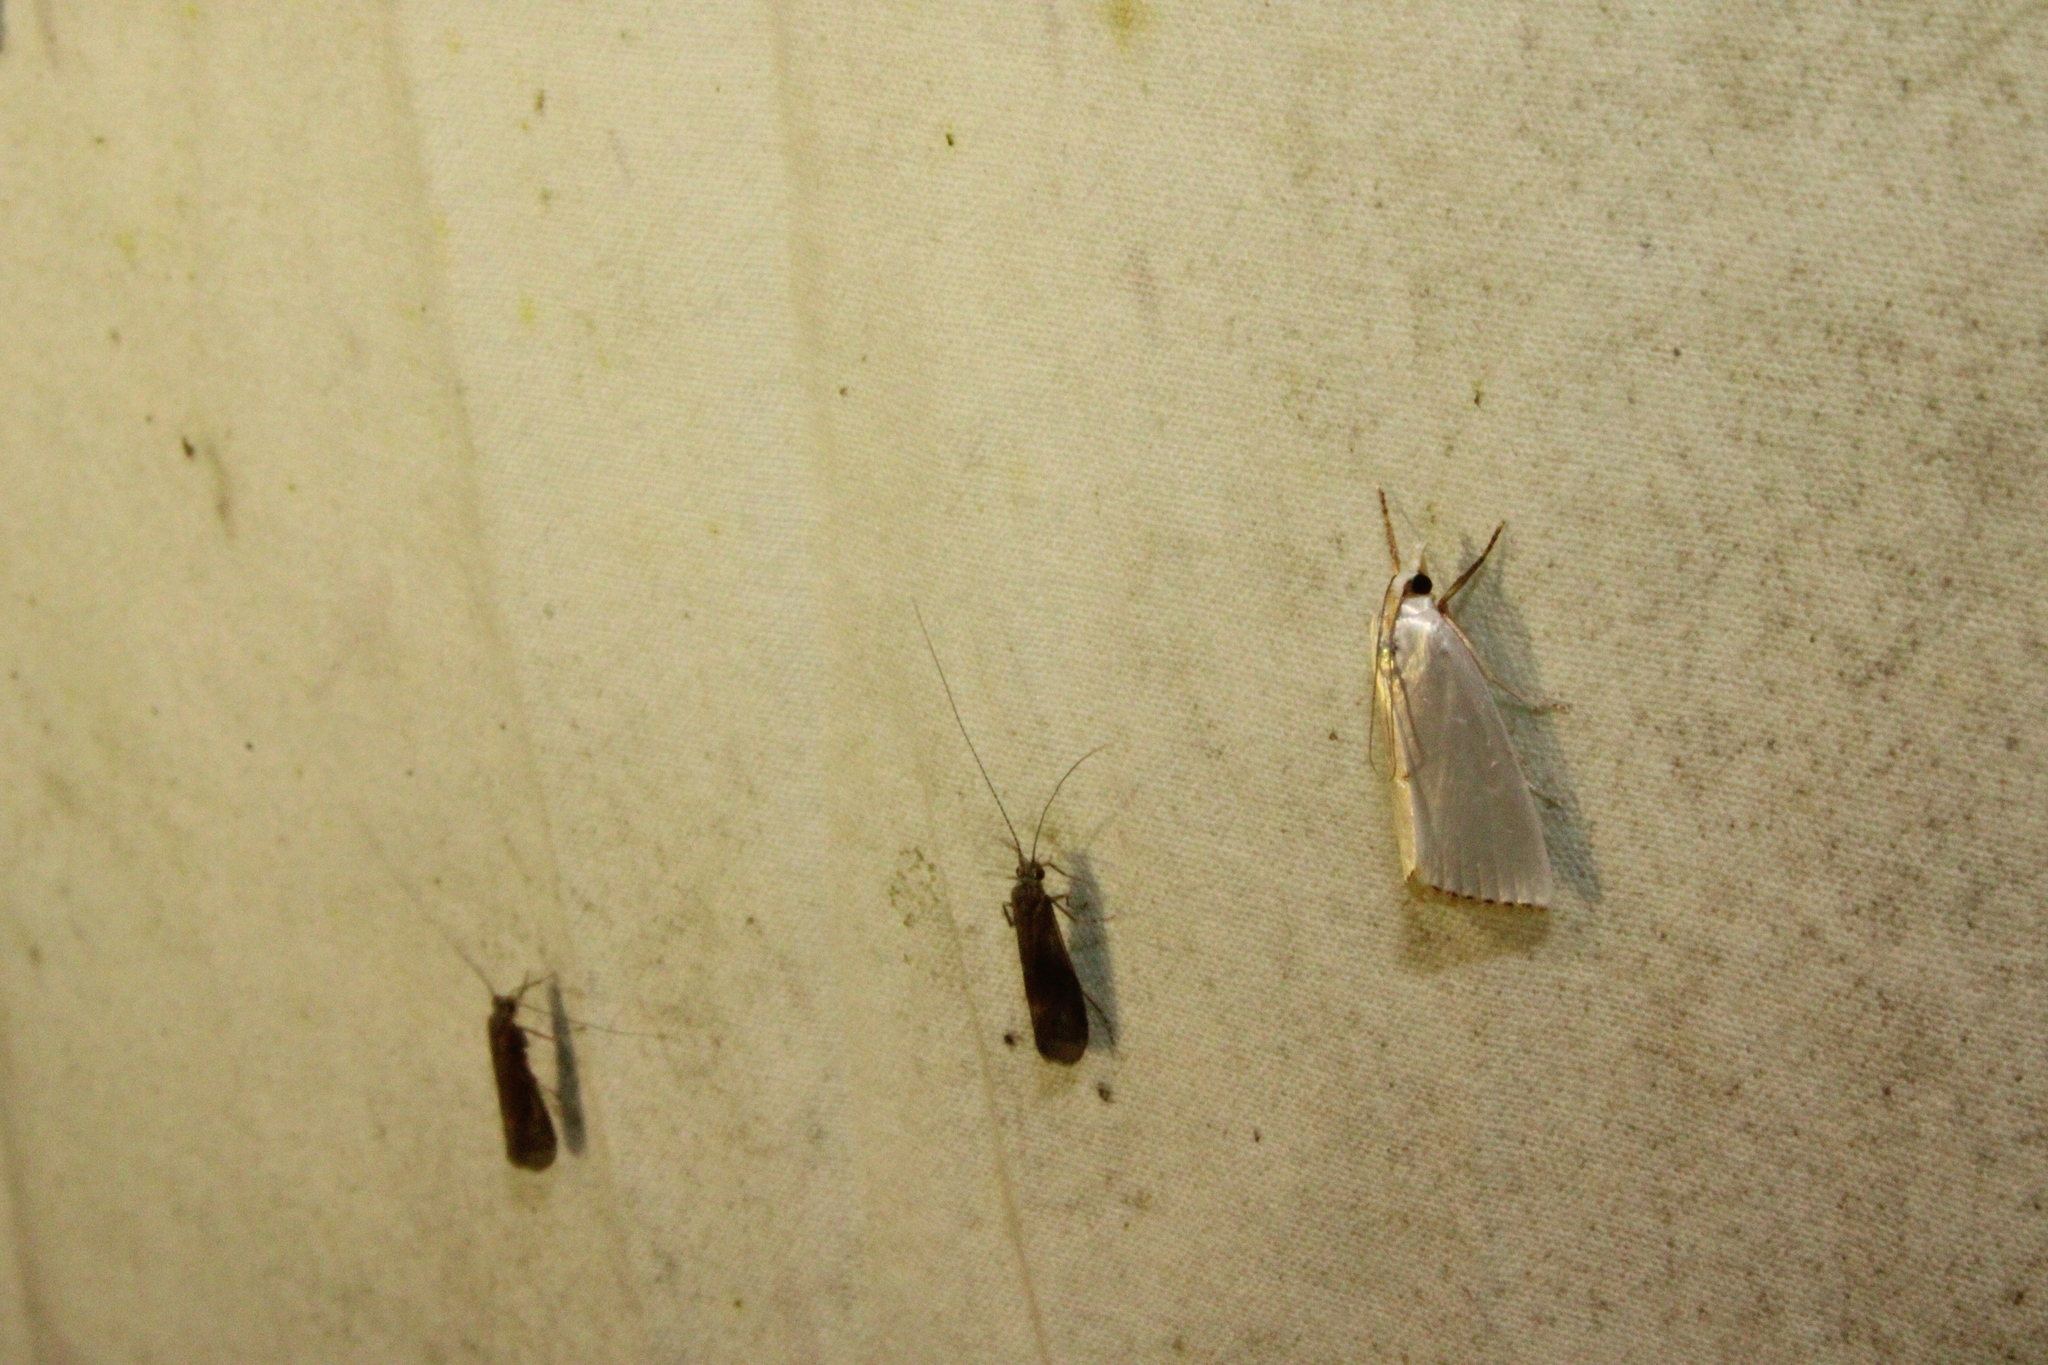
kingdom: Animalia
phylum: Arthropoda
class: Insecta
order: Lepidoptera
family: Crambidae
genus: Argyria
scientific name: Argyria nivalis
